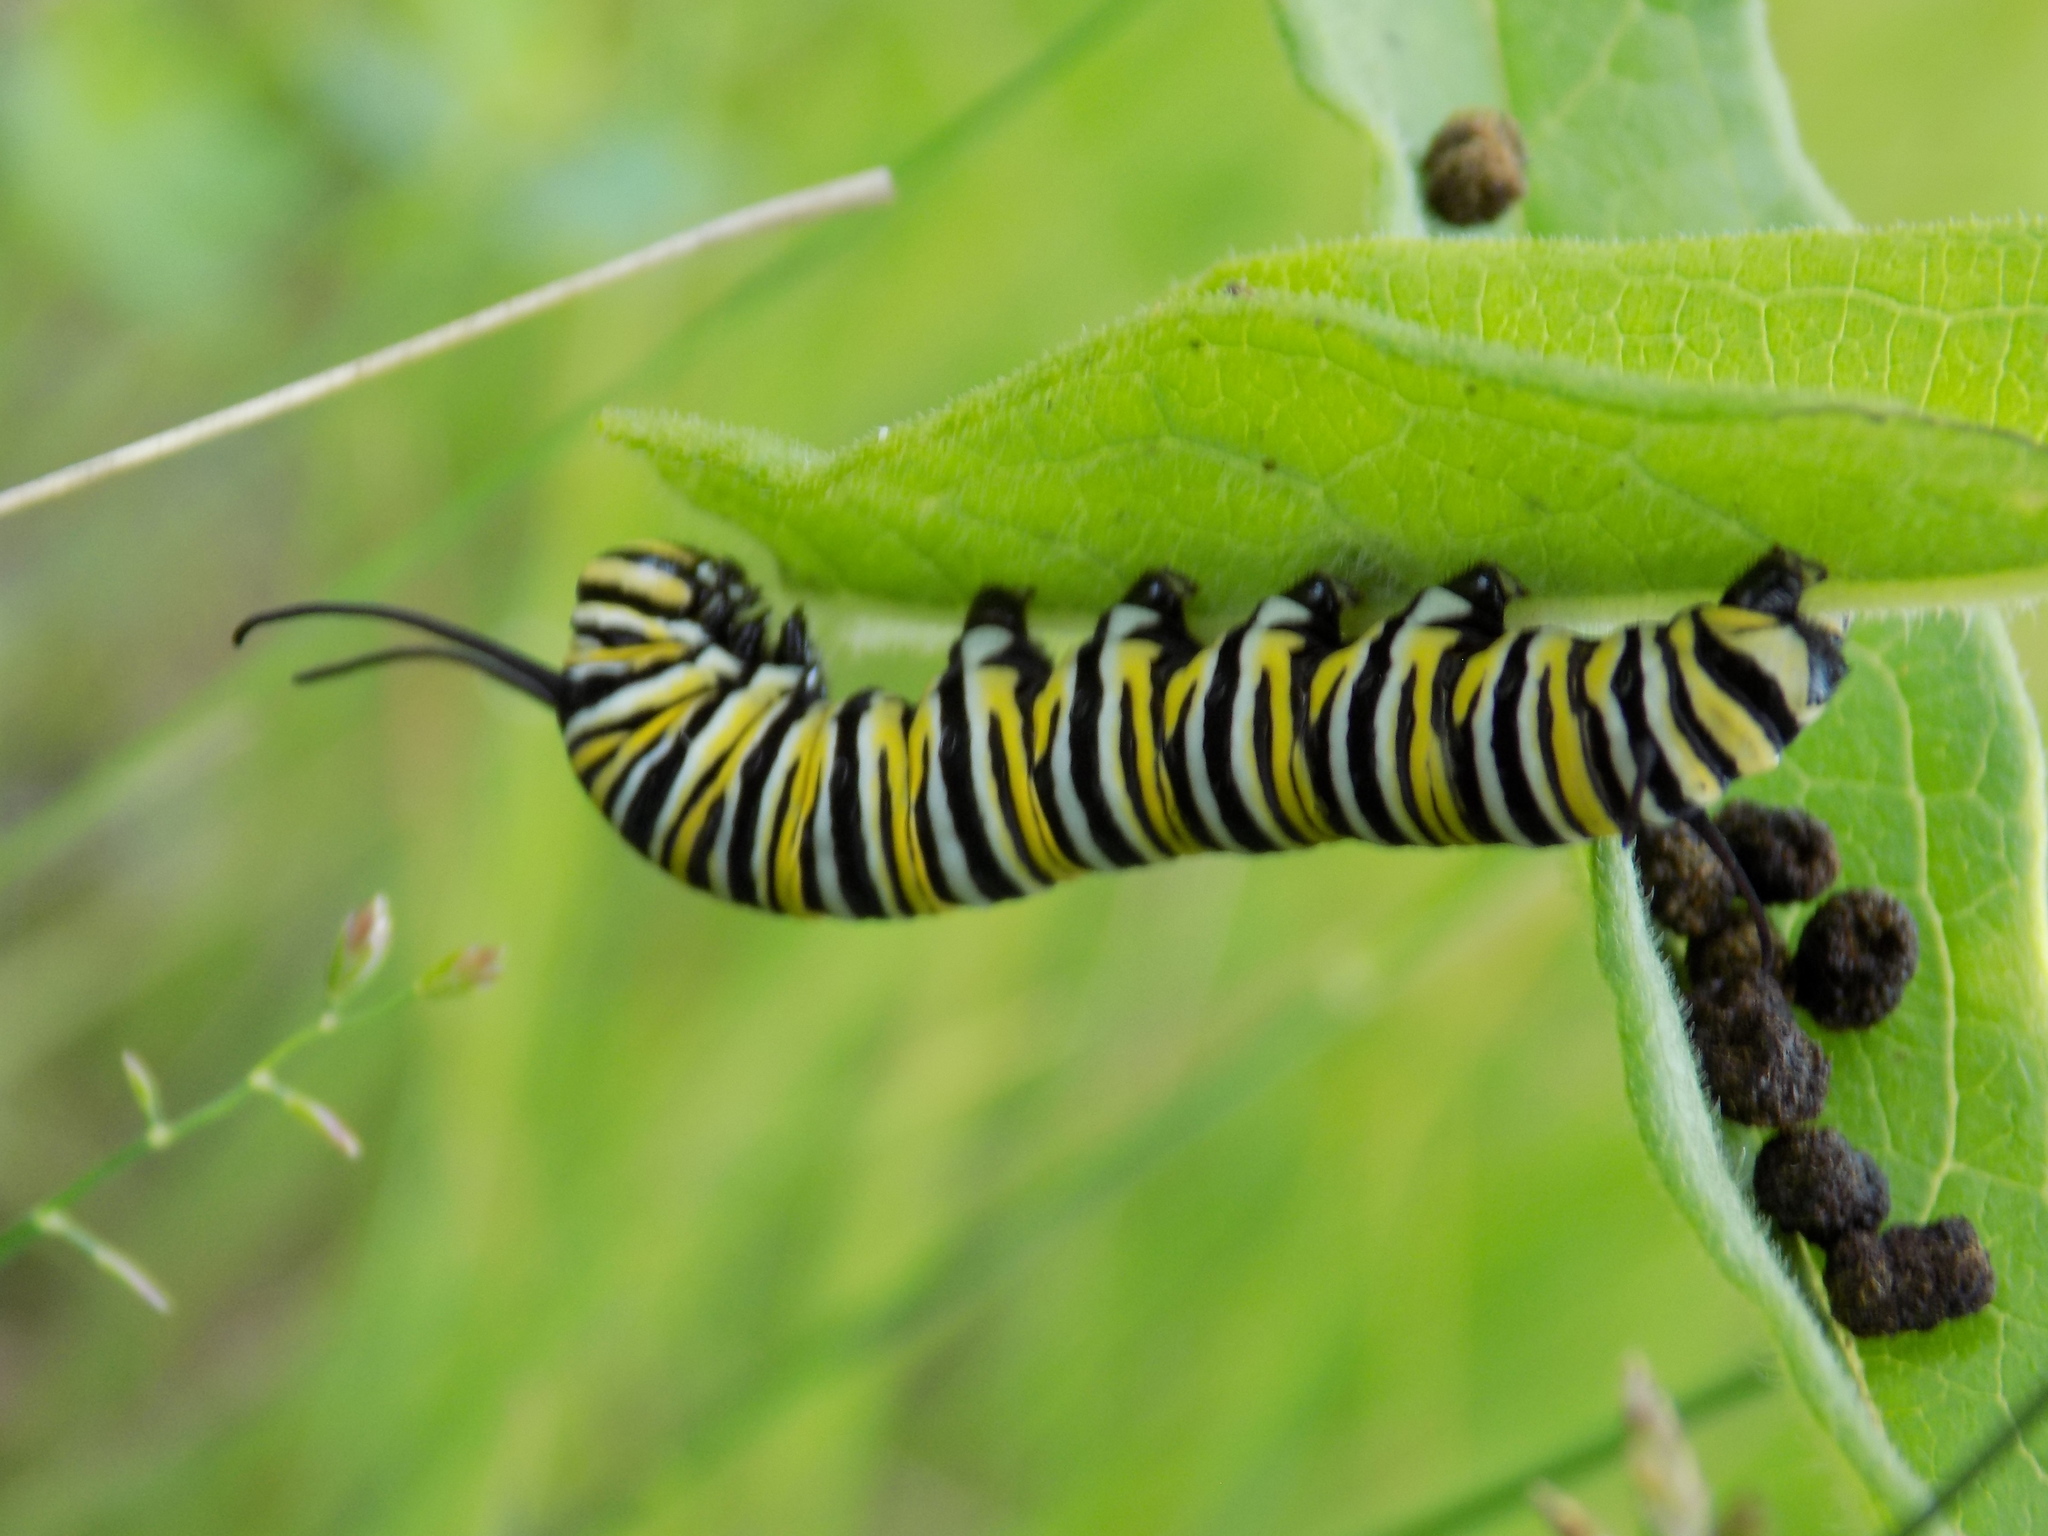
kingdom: Animalia
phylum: Arthropoda
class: Insecta
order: Lepidoptera
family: Nymphalidae
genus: Danaus
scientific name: Danaus plexippus
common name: Monarch
